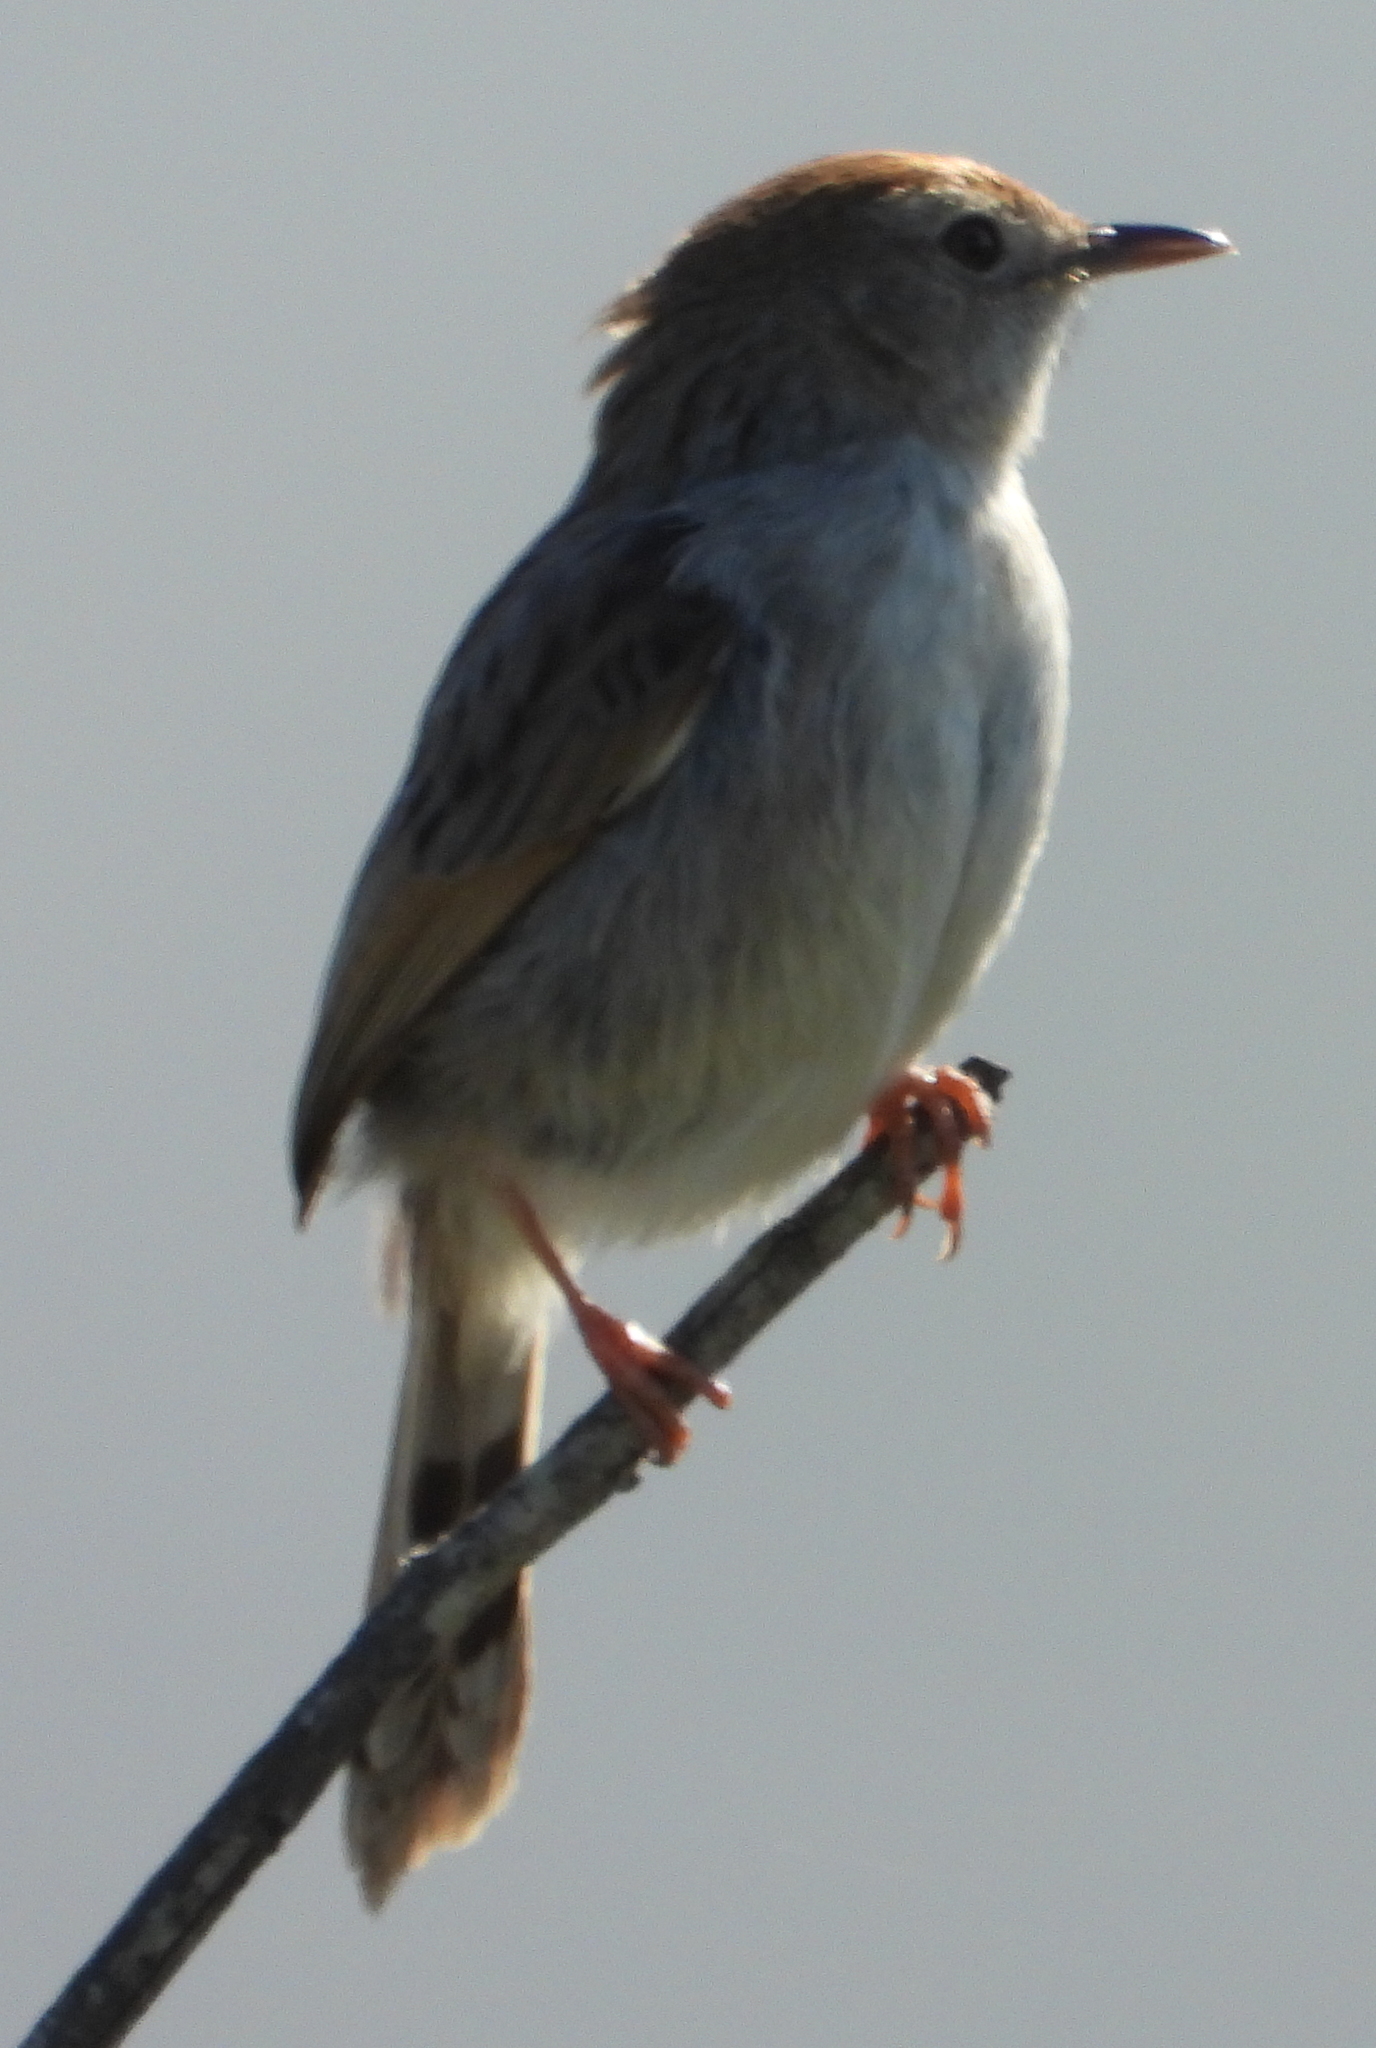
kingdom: Animalia
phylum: Chordata
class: Aves
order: Passeriformes
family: Cisticolidae
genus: Cisticola
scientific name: Cisticola subruficapilla
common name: Grey-backed cisticola
